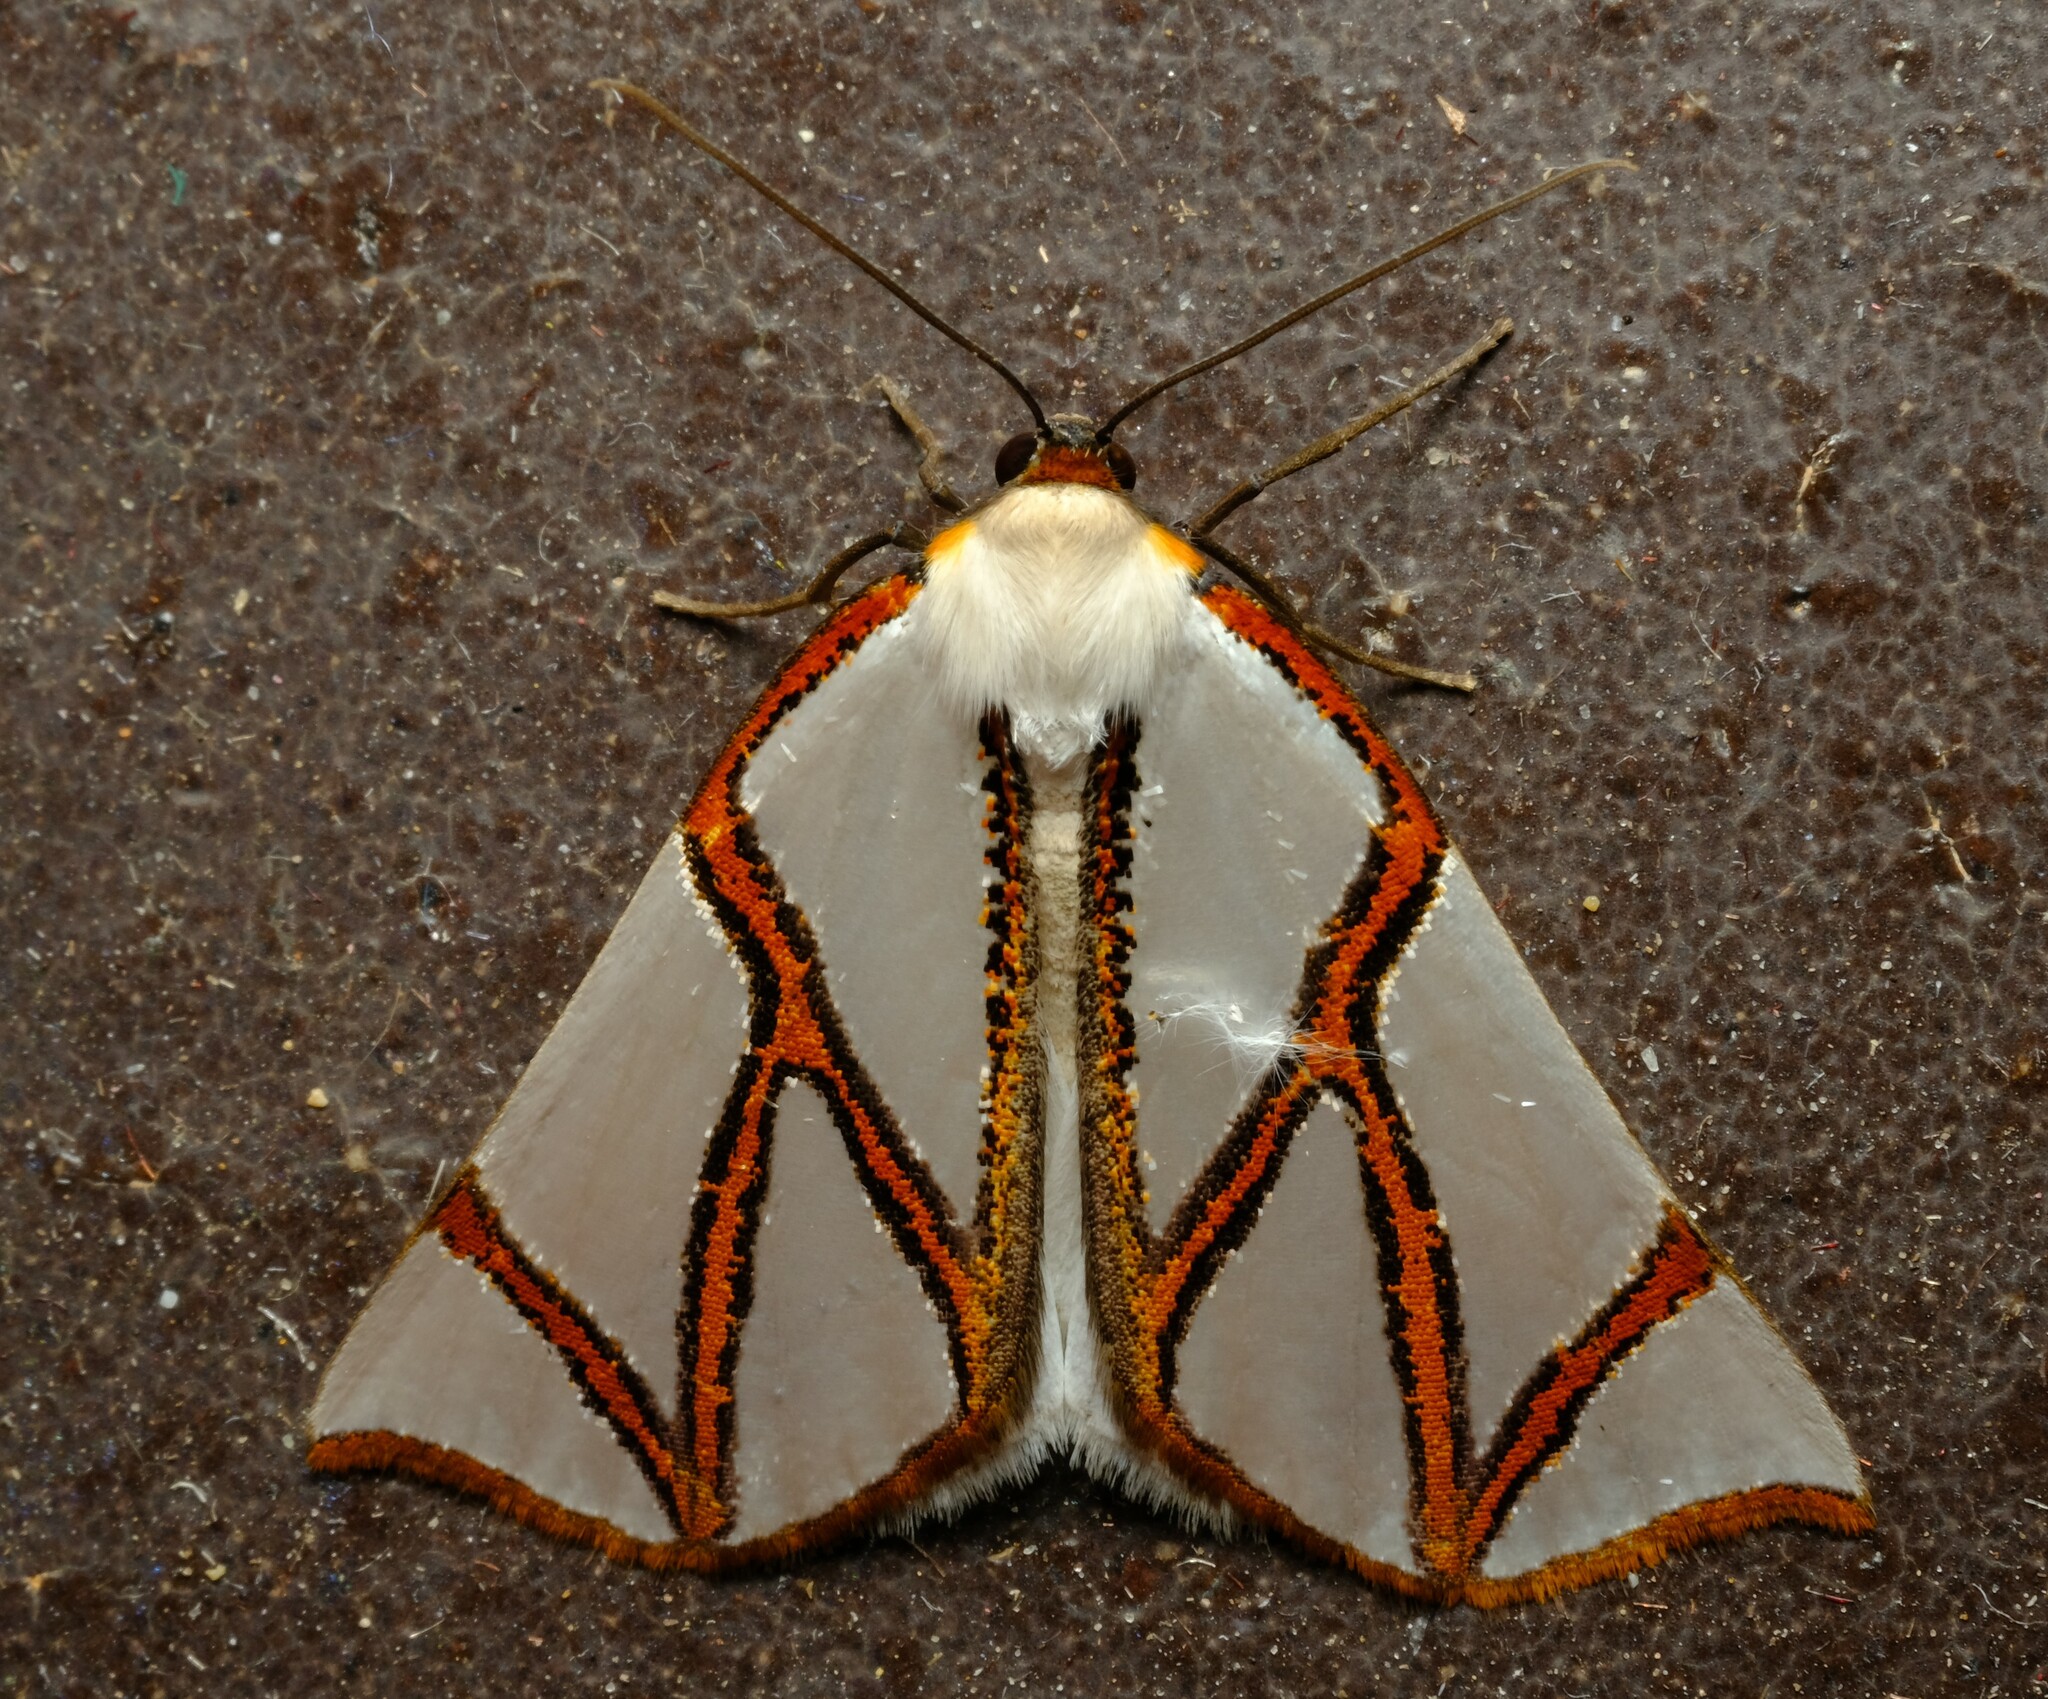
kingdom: Animalia
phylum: Arthropoda
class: Insecta
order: Lepidoptera
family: Geometridae
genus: Thalaina
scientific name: Thalaina clara
